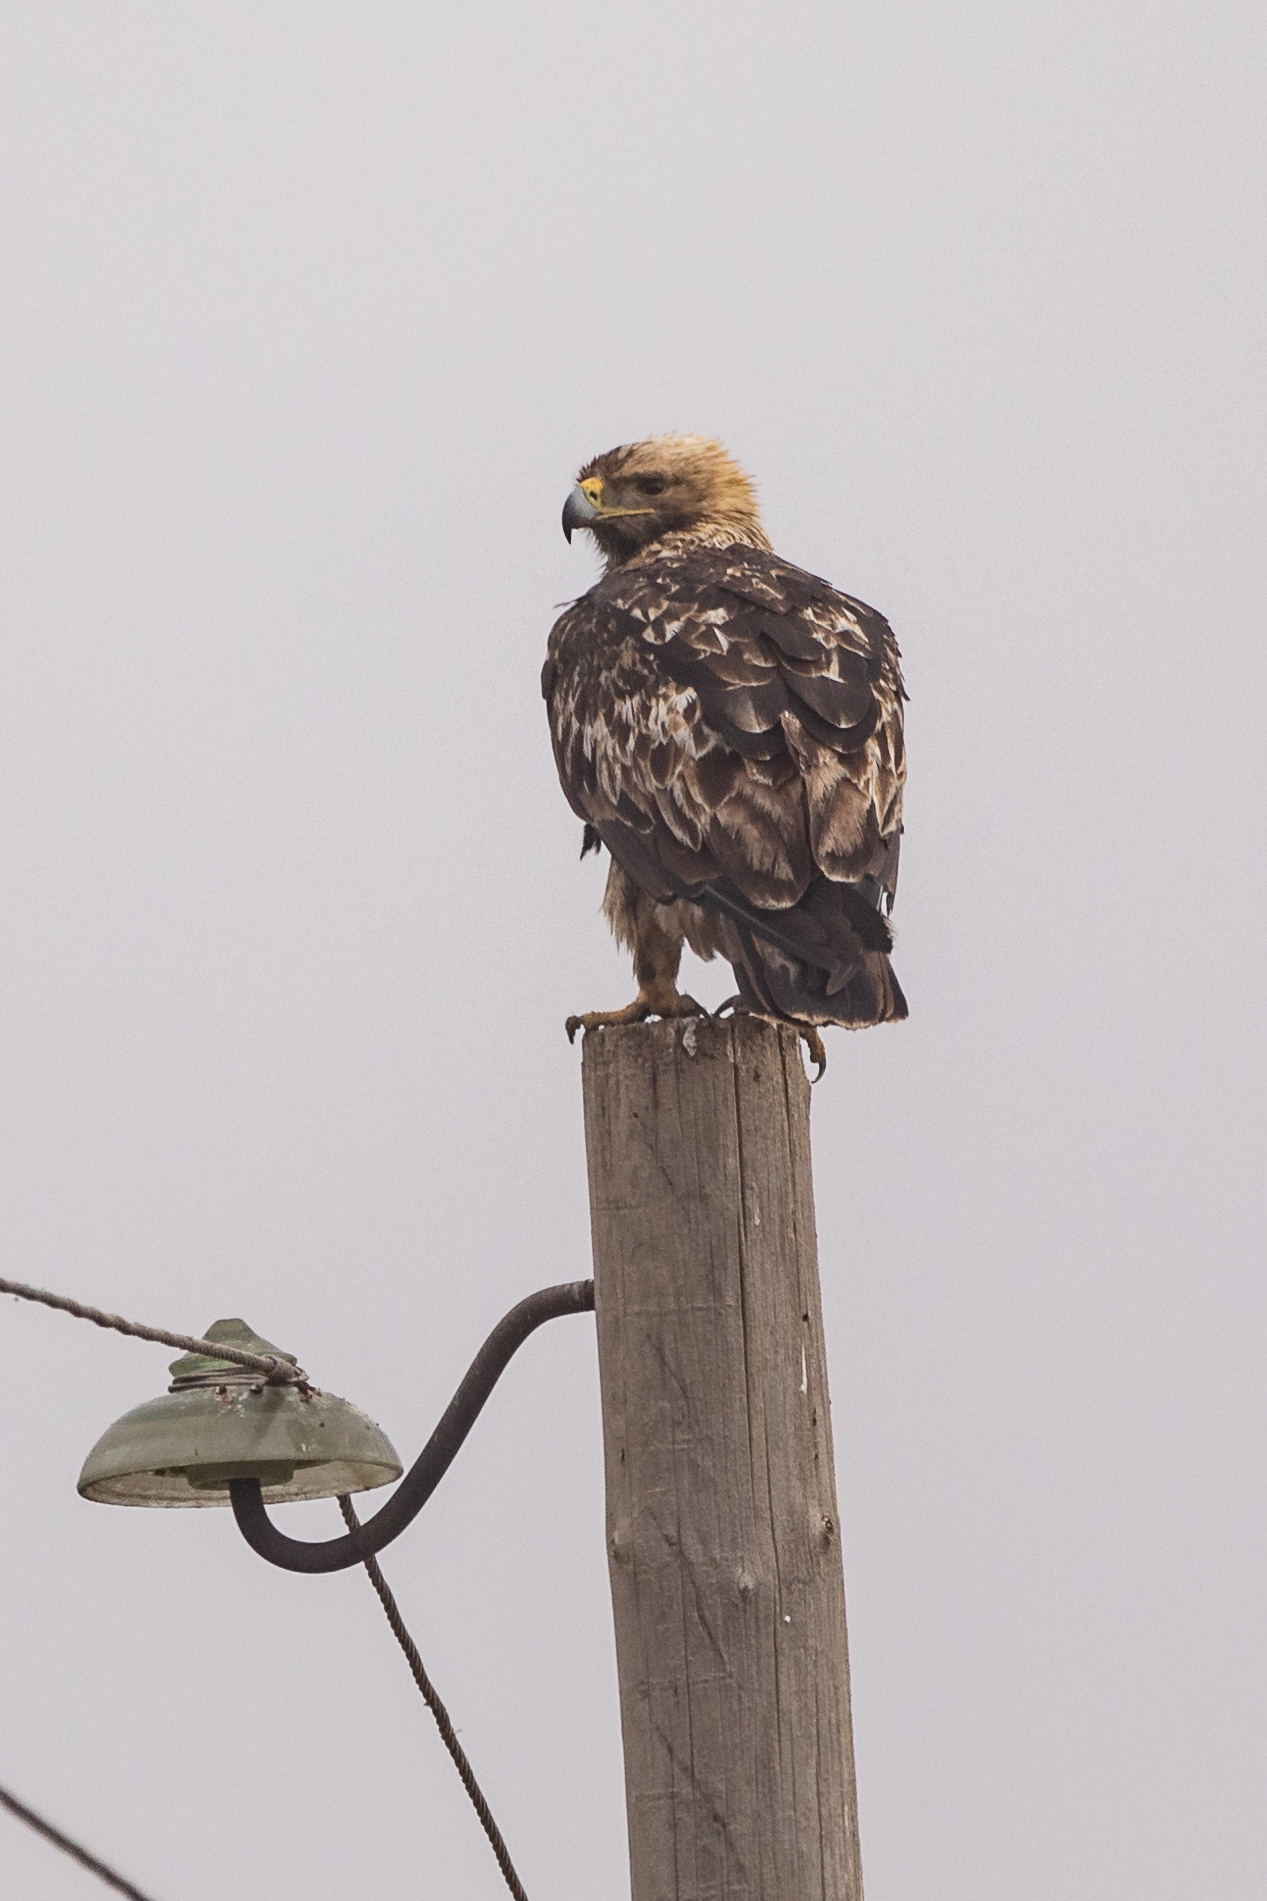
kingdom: Animalia
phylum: Chordata
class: Aves
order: Accipitriformes
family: Accipitridae
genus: Aquila
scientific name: Aquila heliaca
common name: Eastern imperial eagle
